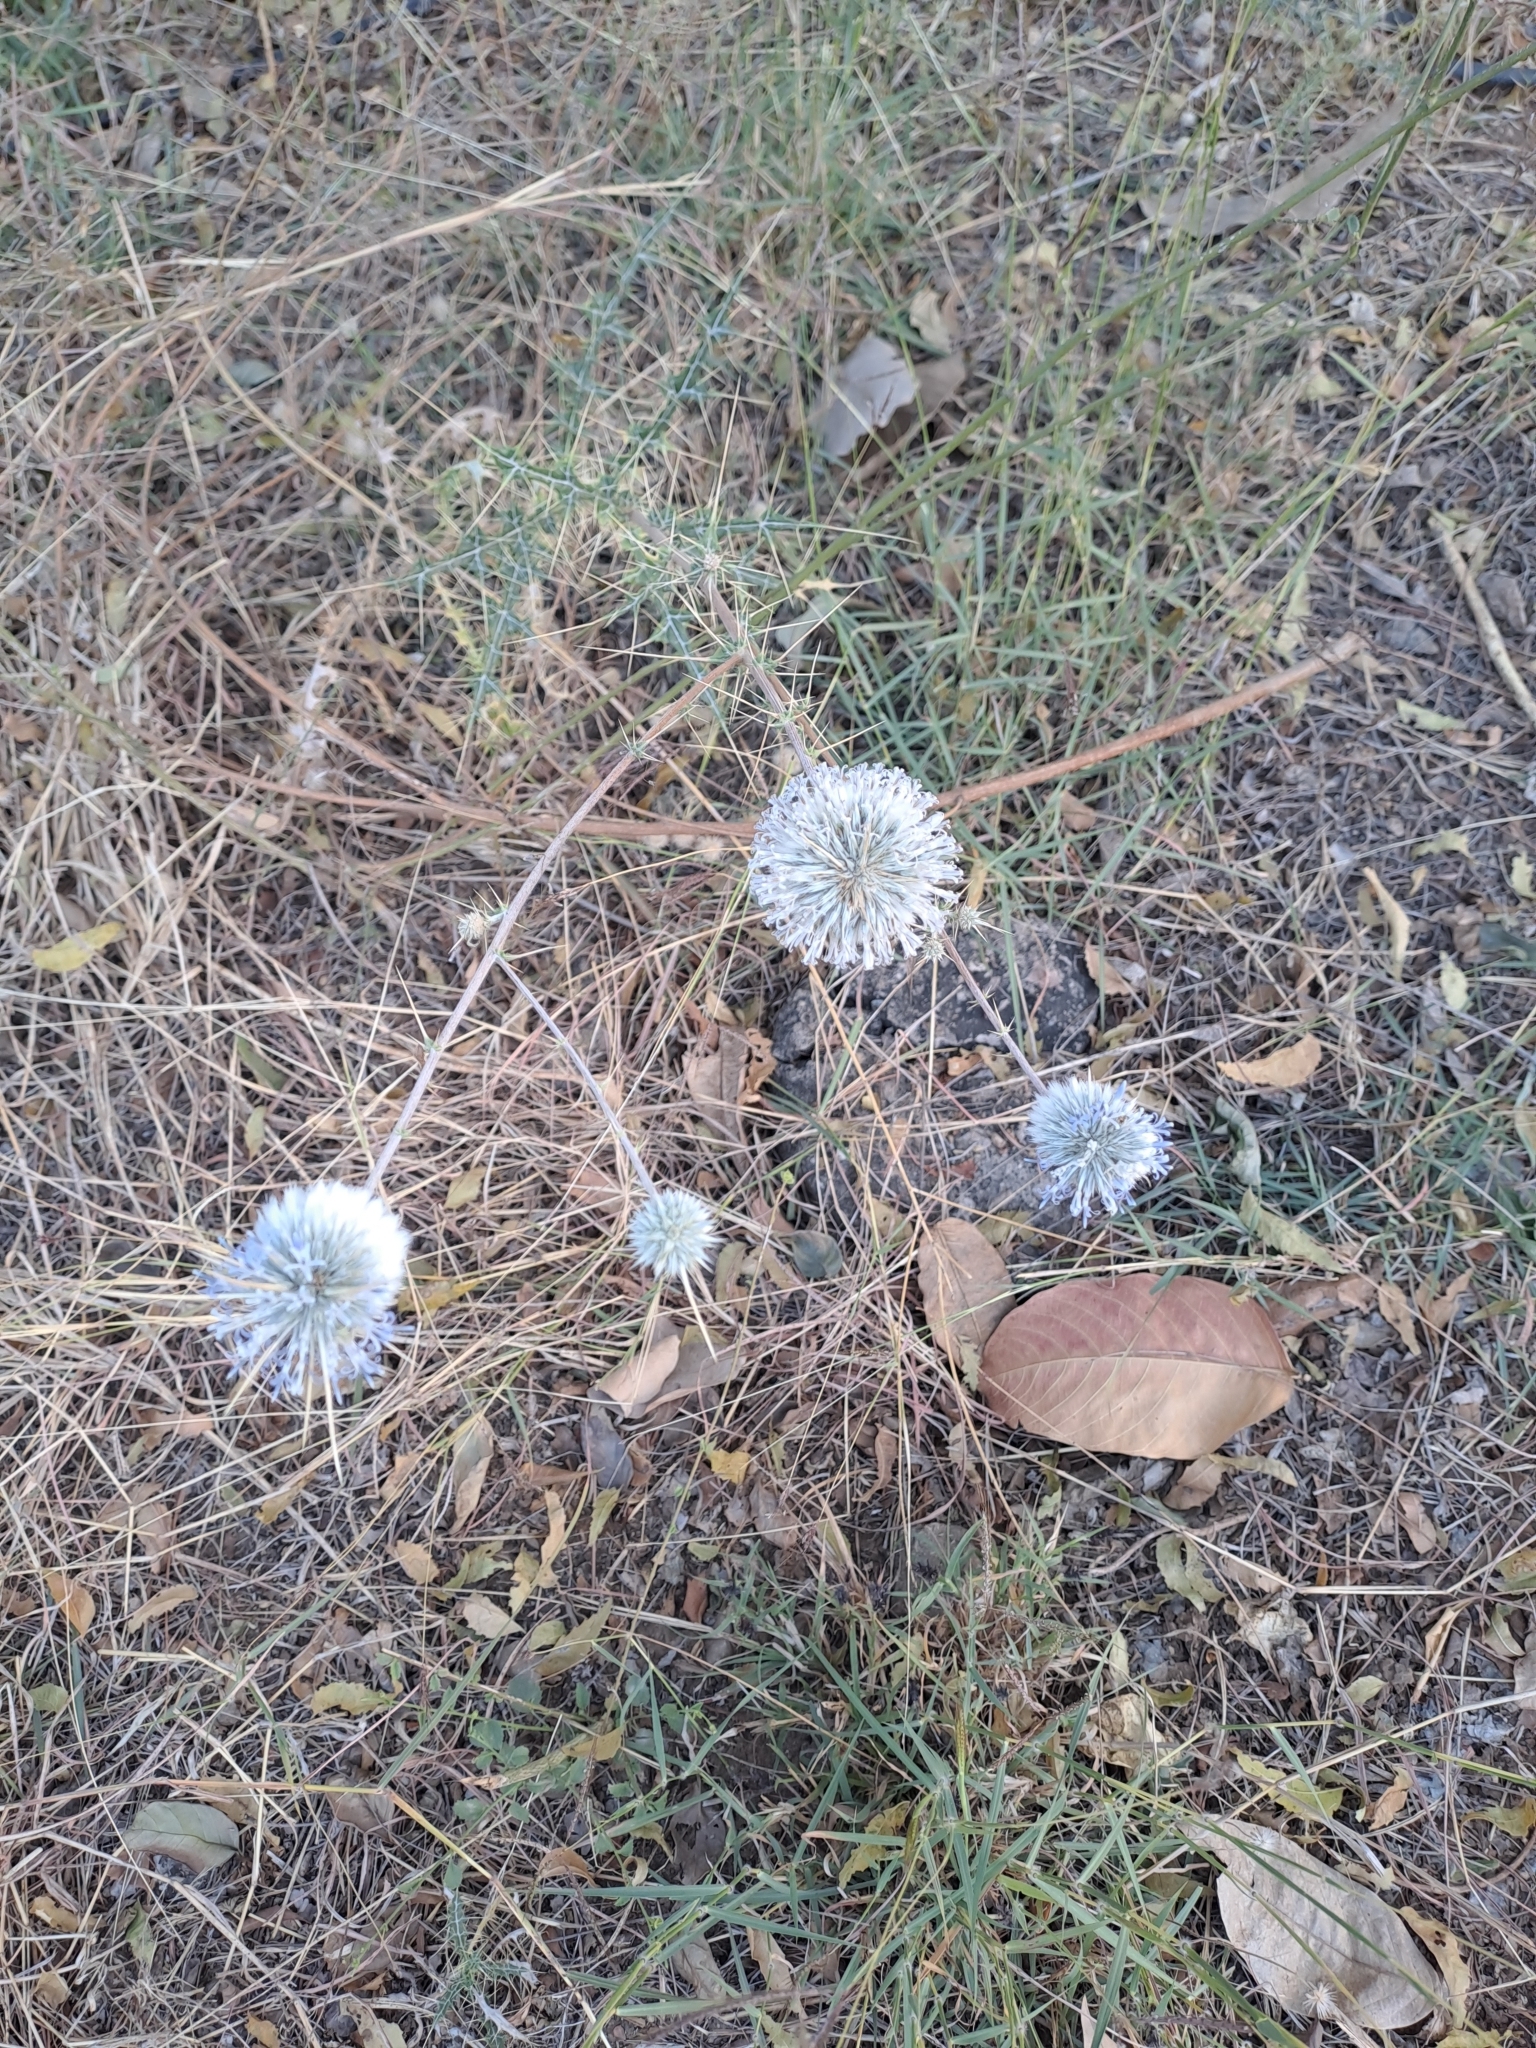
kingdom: Plantae
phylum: Tracheophyta
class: Magnoliopsida
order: Asterales
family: Asteraceae
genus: Echinops
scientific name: Echinops echinatus
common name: Indian globe thistle
